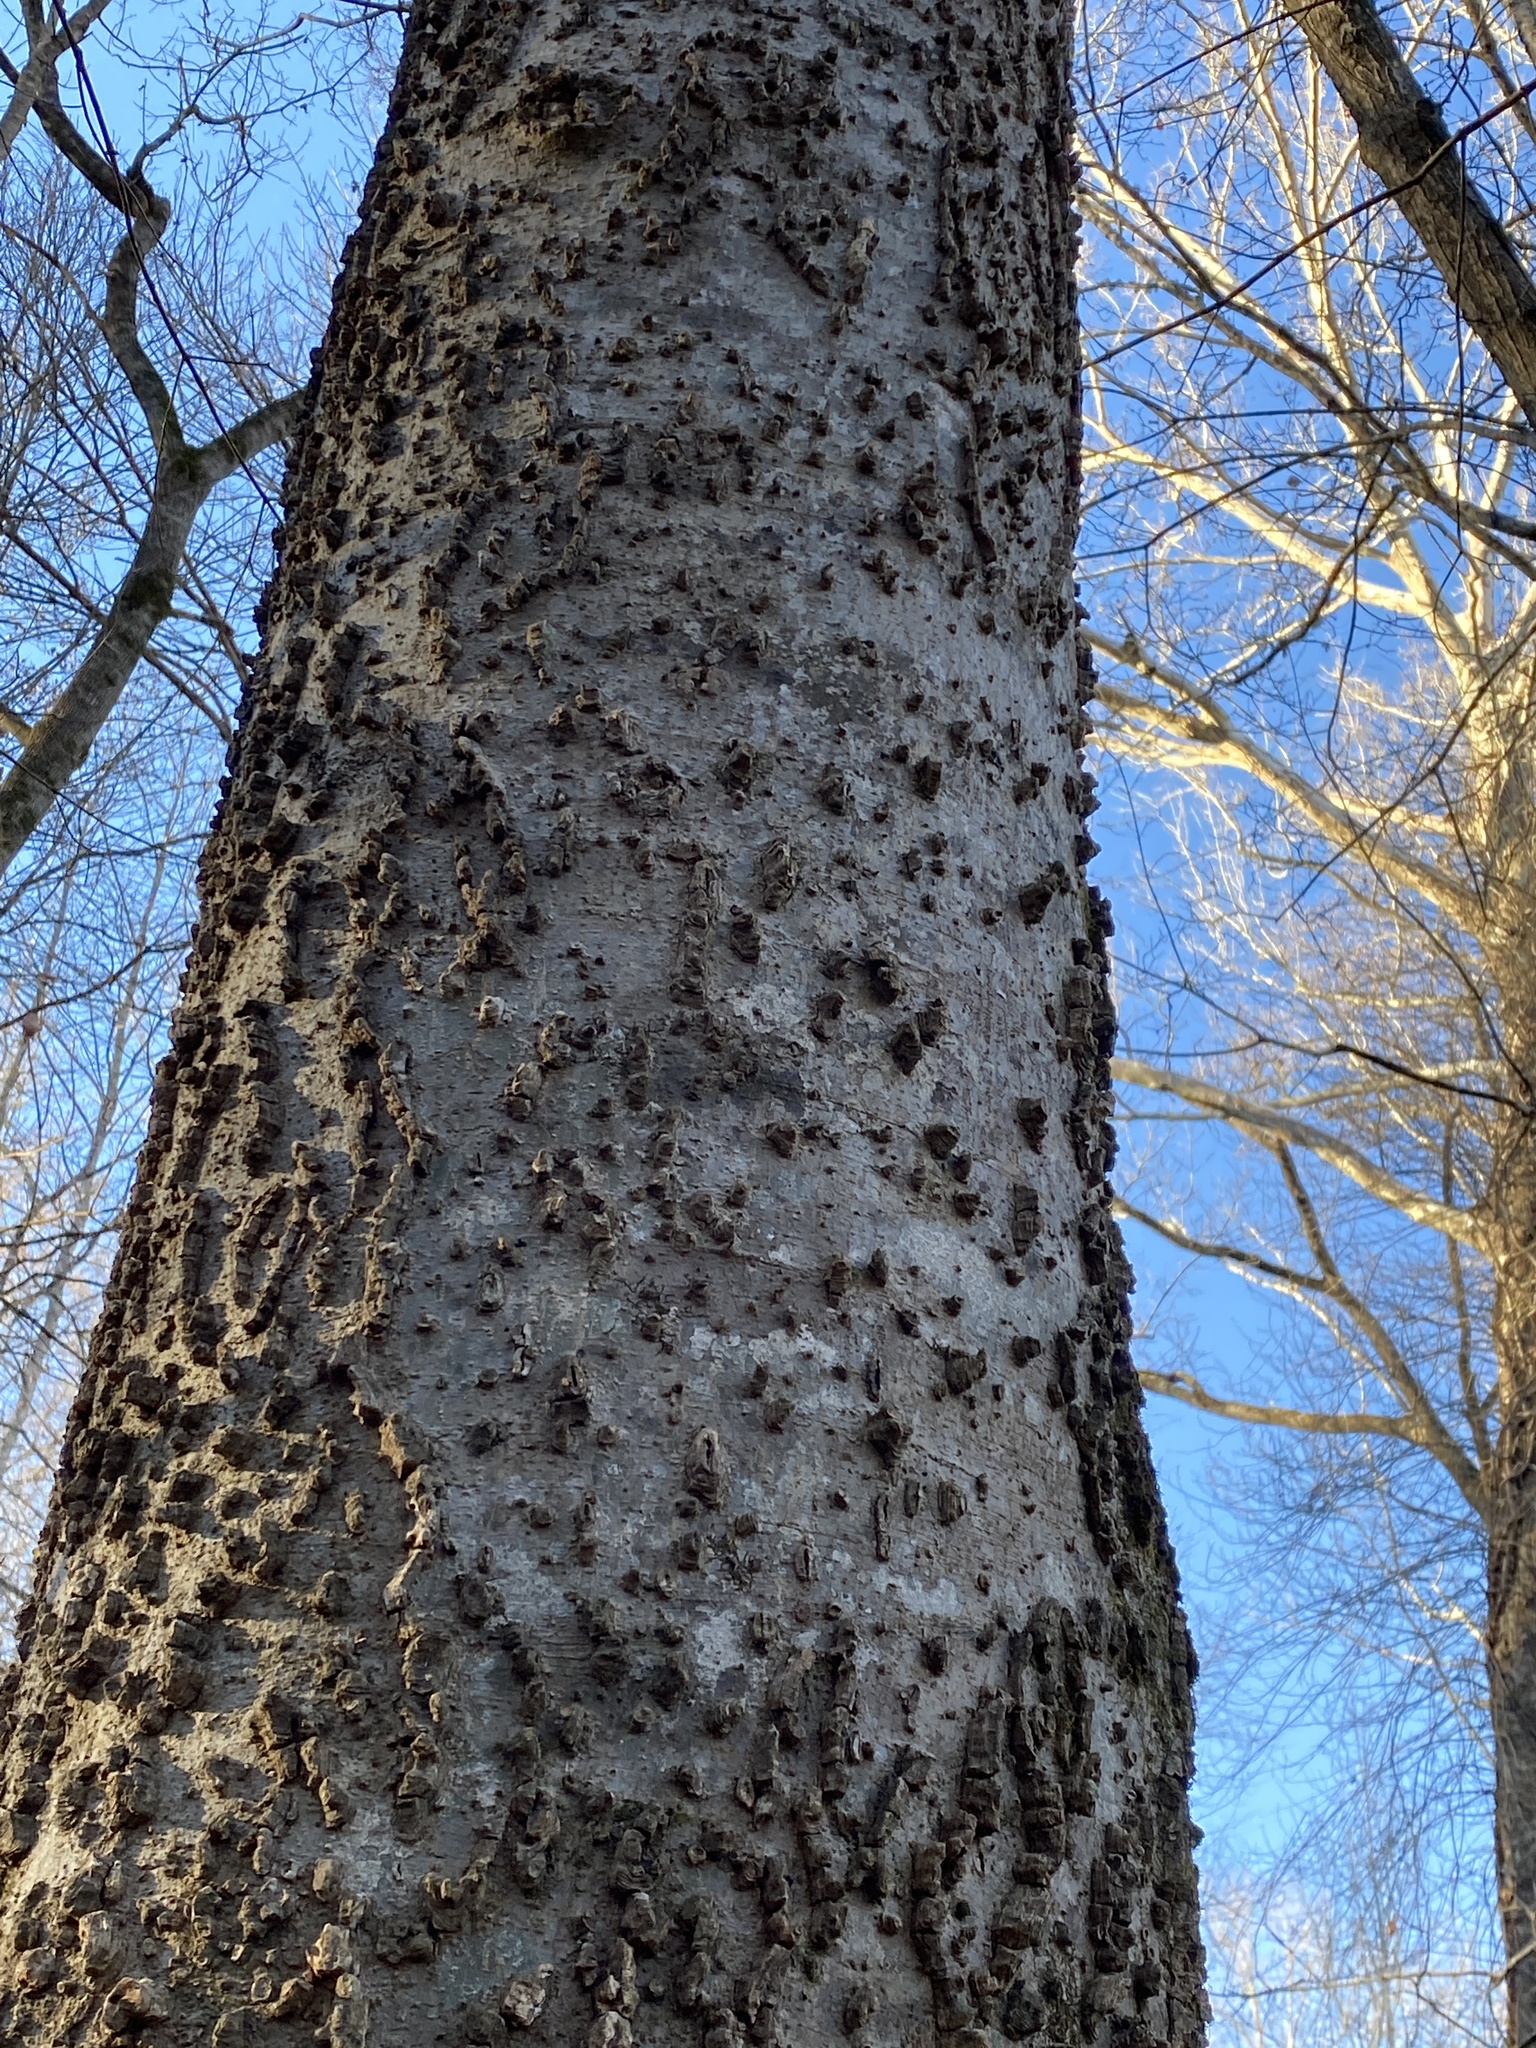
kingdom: Plantae
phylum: Tracheophyta
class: Magnoliopsida
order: Rosales
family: Cannabaceae
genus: Celtis
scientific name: Celtis laevigata
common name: Sugarberry
